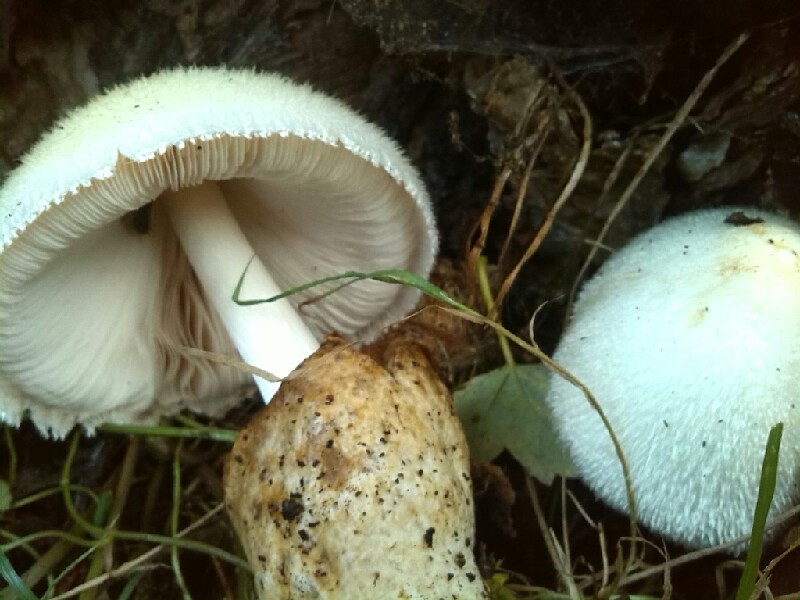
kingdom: Fungi
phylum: Basidiomycota
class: Agaricomycetes
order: Agaricales
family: Pluteaceae
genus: Volvariella
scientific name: Volvariella bombycina
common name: Silky rosegill
